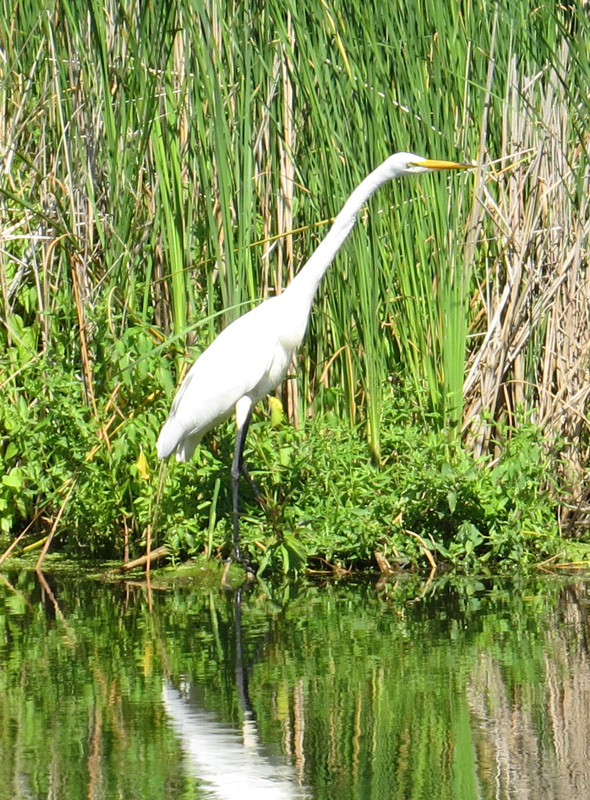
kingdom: Animalia
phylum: Chordata
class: Aves
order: Pelecaniformes
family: Ardeidae
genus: Ardea
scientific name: Ardea alba
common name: Great egret
